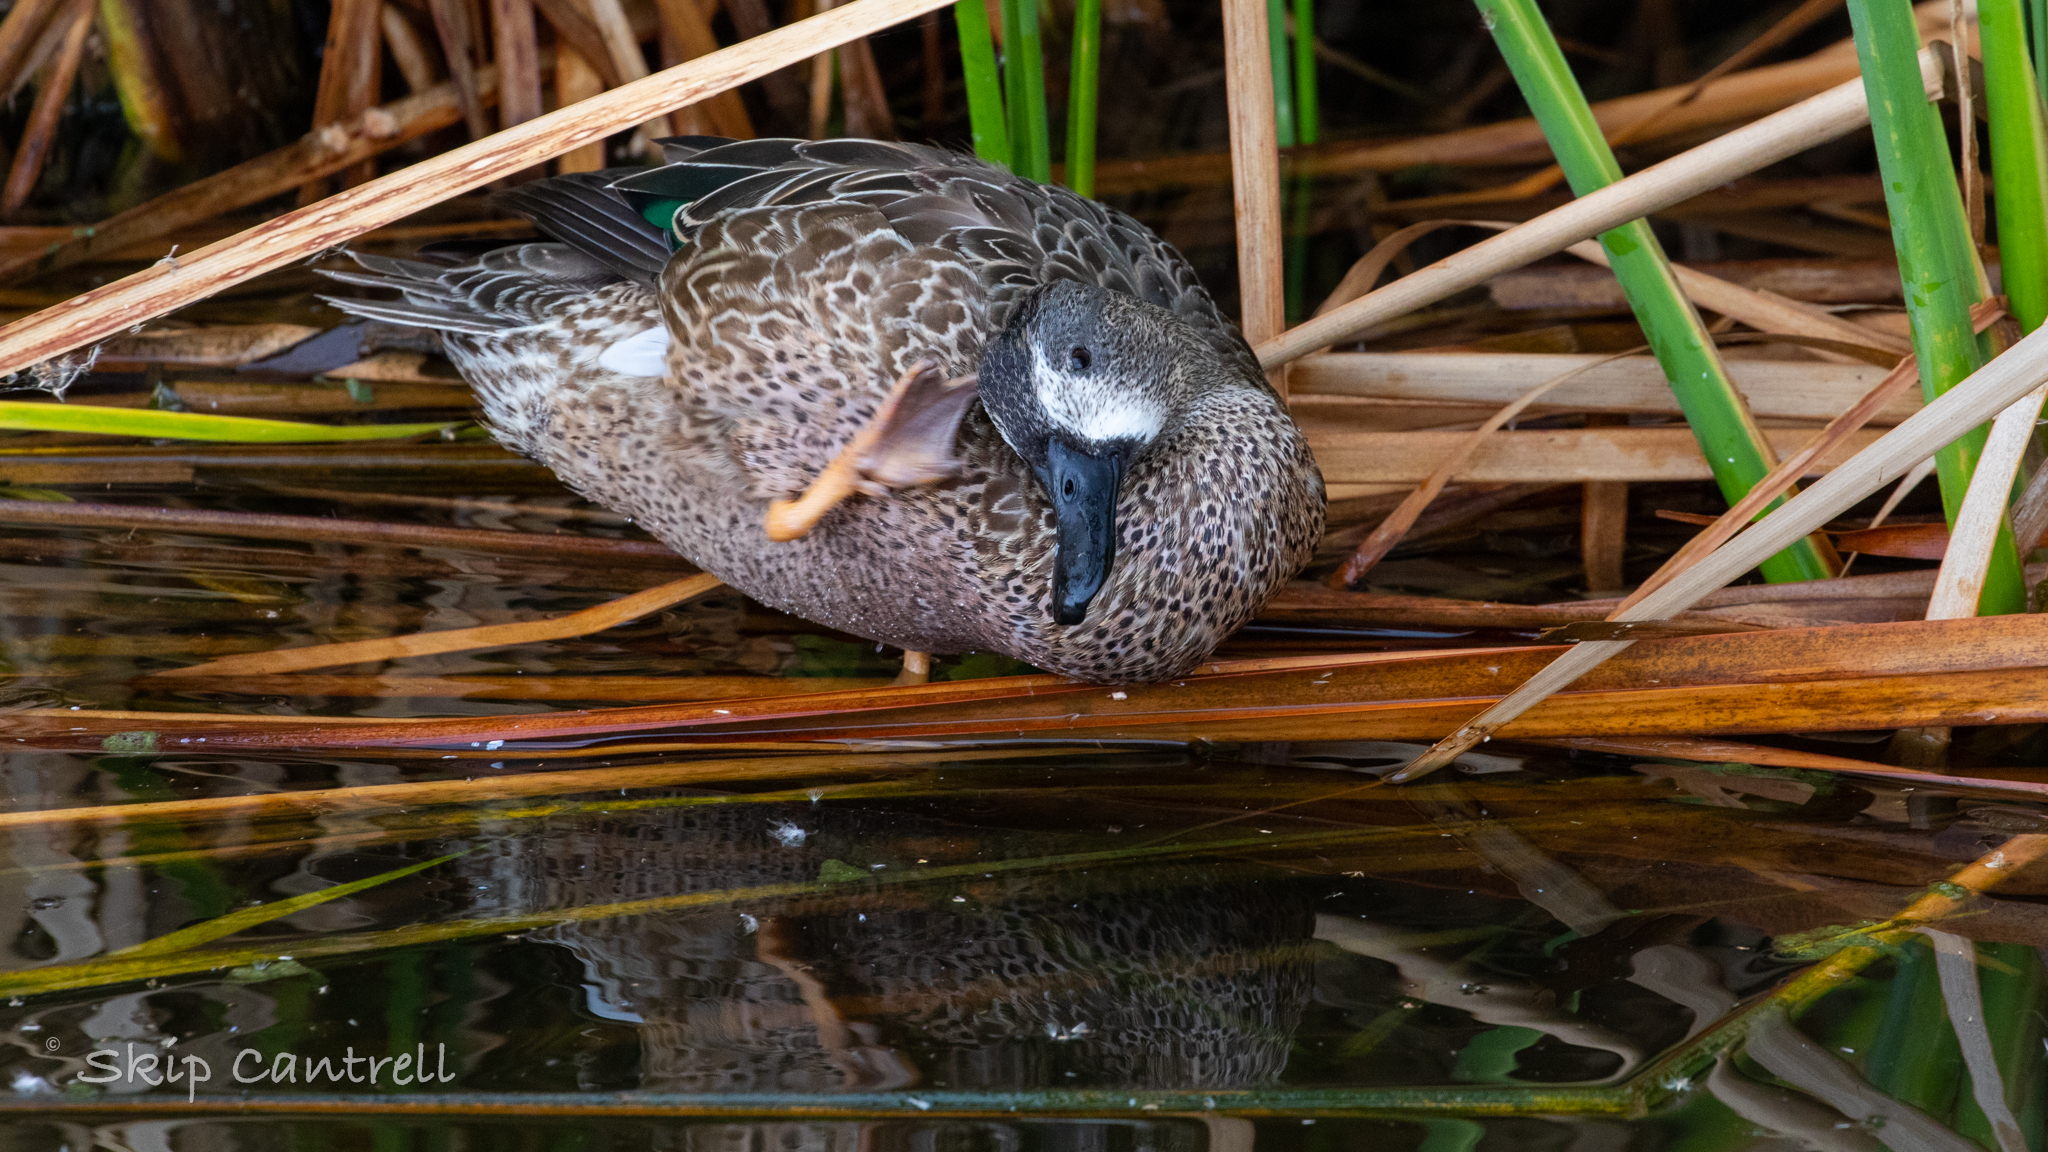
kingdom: Animalia
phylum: Chordata
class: Aves
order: Anseriformes
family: Anatidae
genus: Spatula
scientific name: Spatula discors
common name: Blue-winged teal
